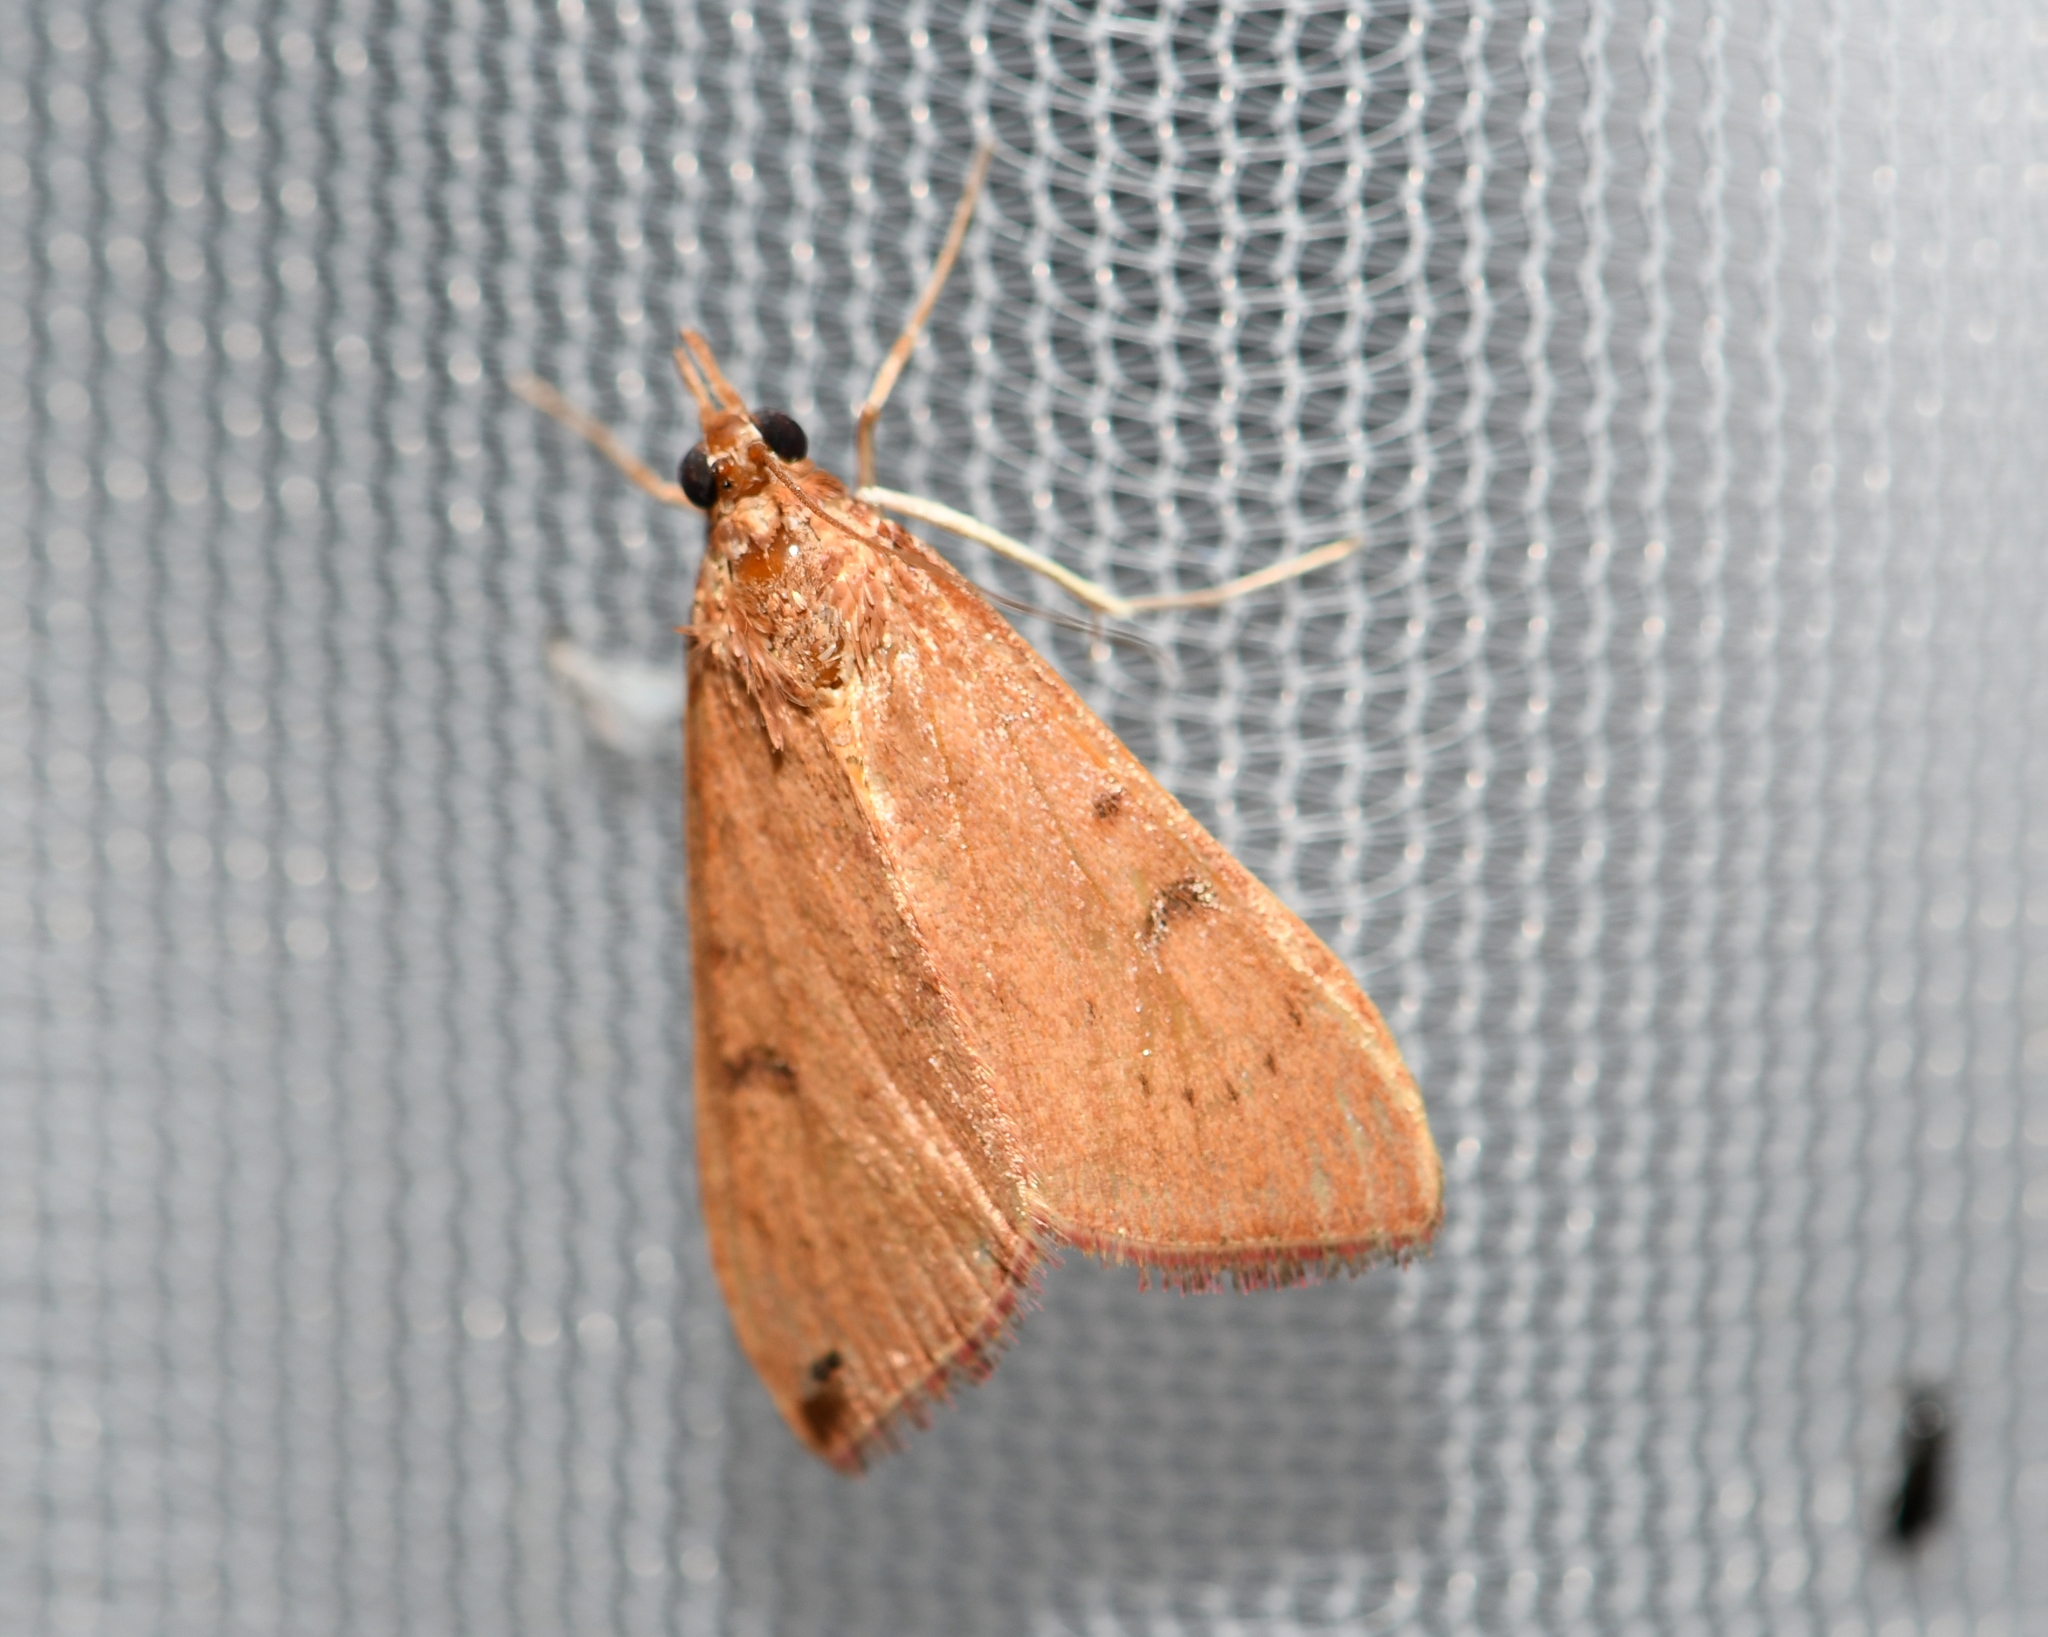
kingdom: Animalia
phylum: Arthropoda
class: Insecta
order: Lepidoptera
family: Crambidae
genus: Uresiphita
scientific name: Uresiphita reversalis
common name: Genista broom moth
